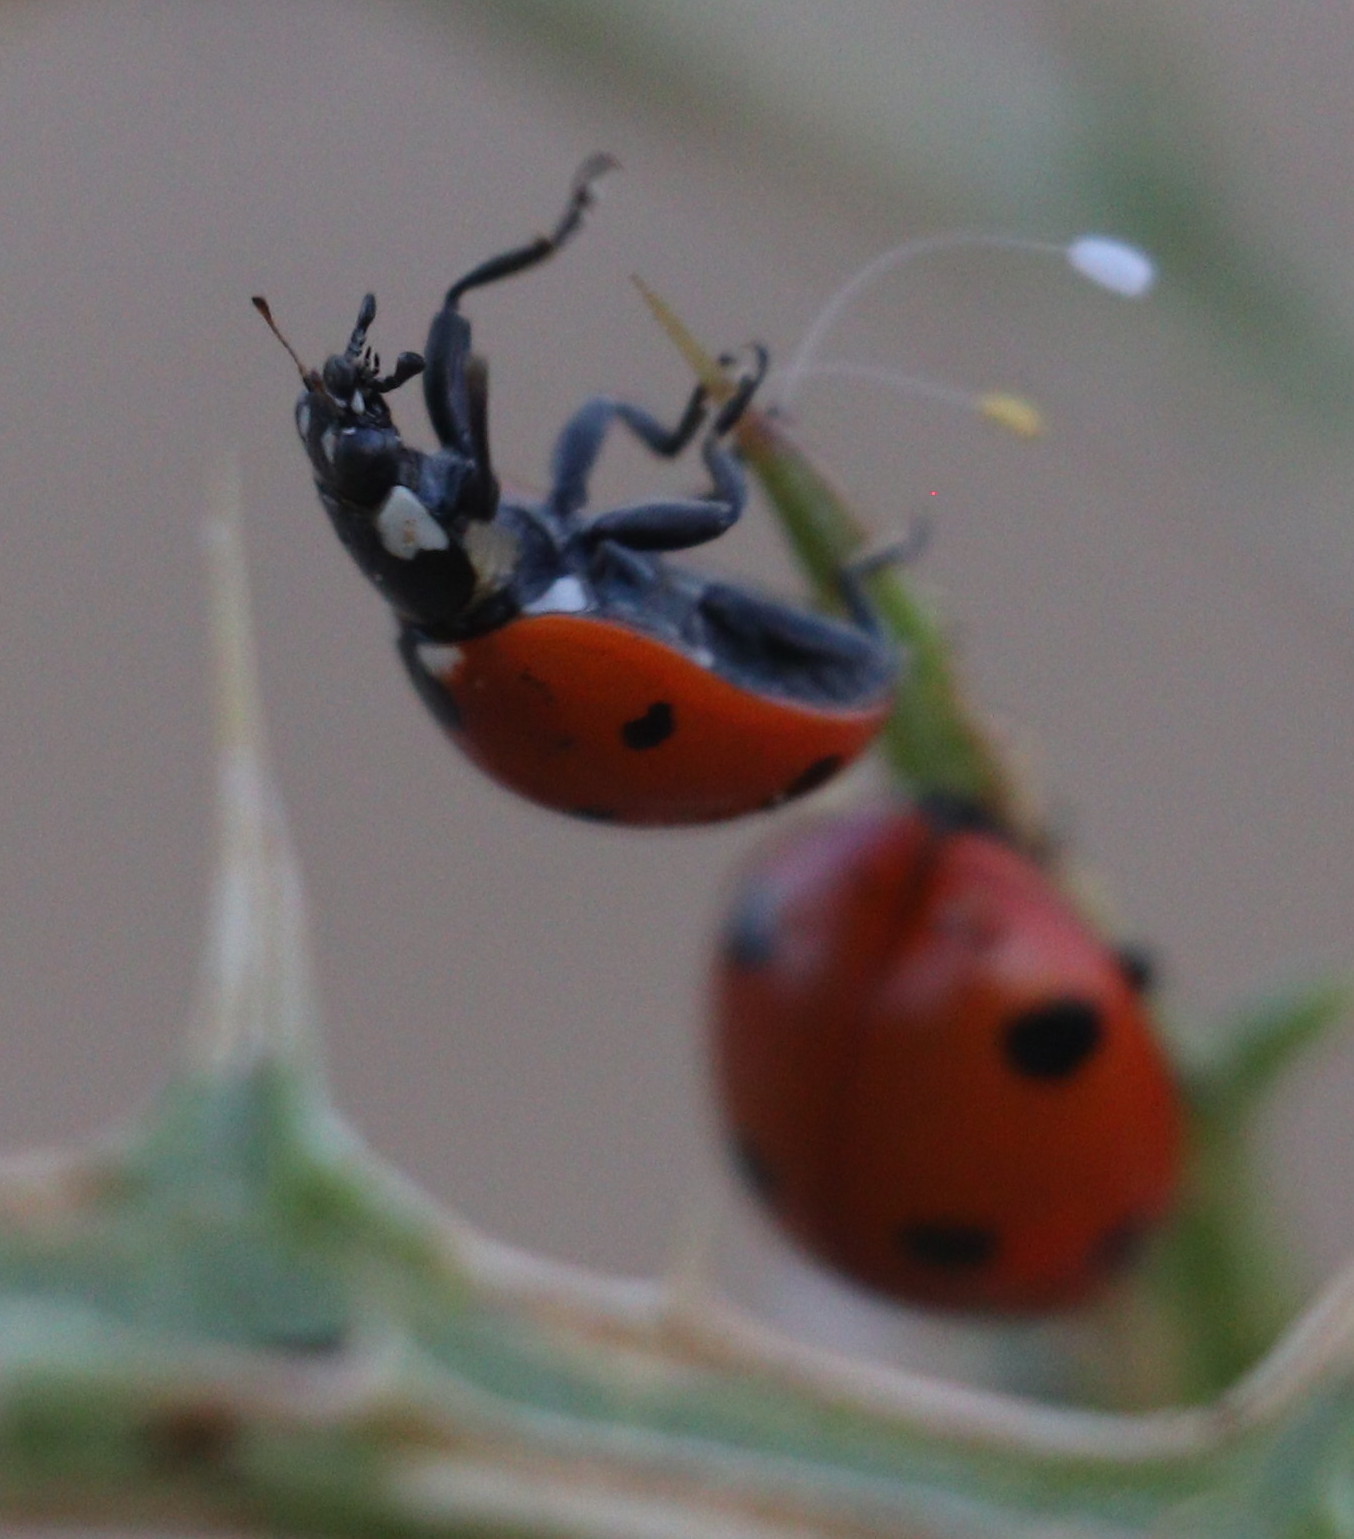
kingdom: Animalia
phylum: Arthropoda
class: Insecta
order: Coleoptera
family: Coccinellidae
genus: Coccinella
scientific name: Coccinella septempunctata
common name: Sevenspotted lady beetle
